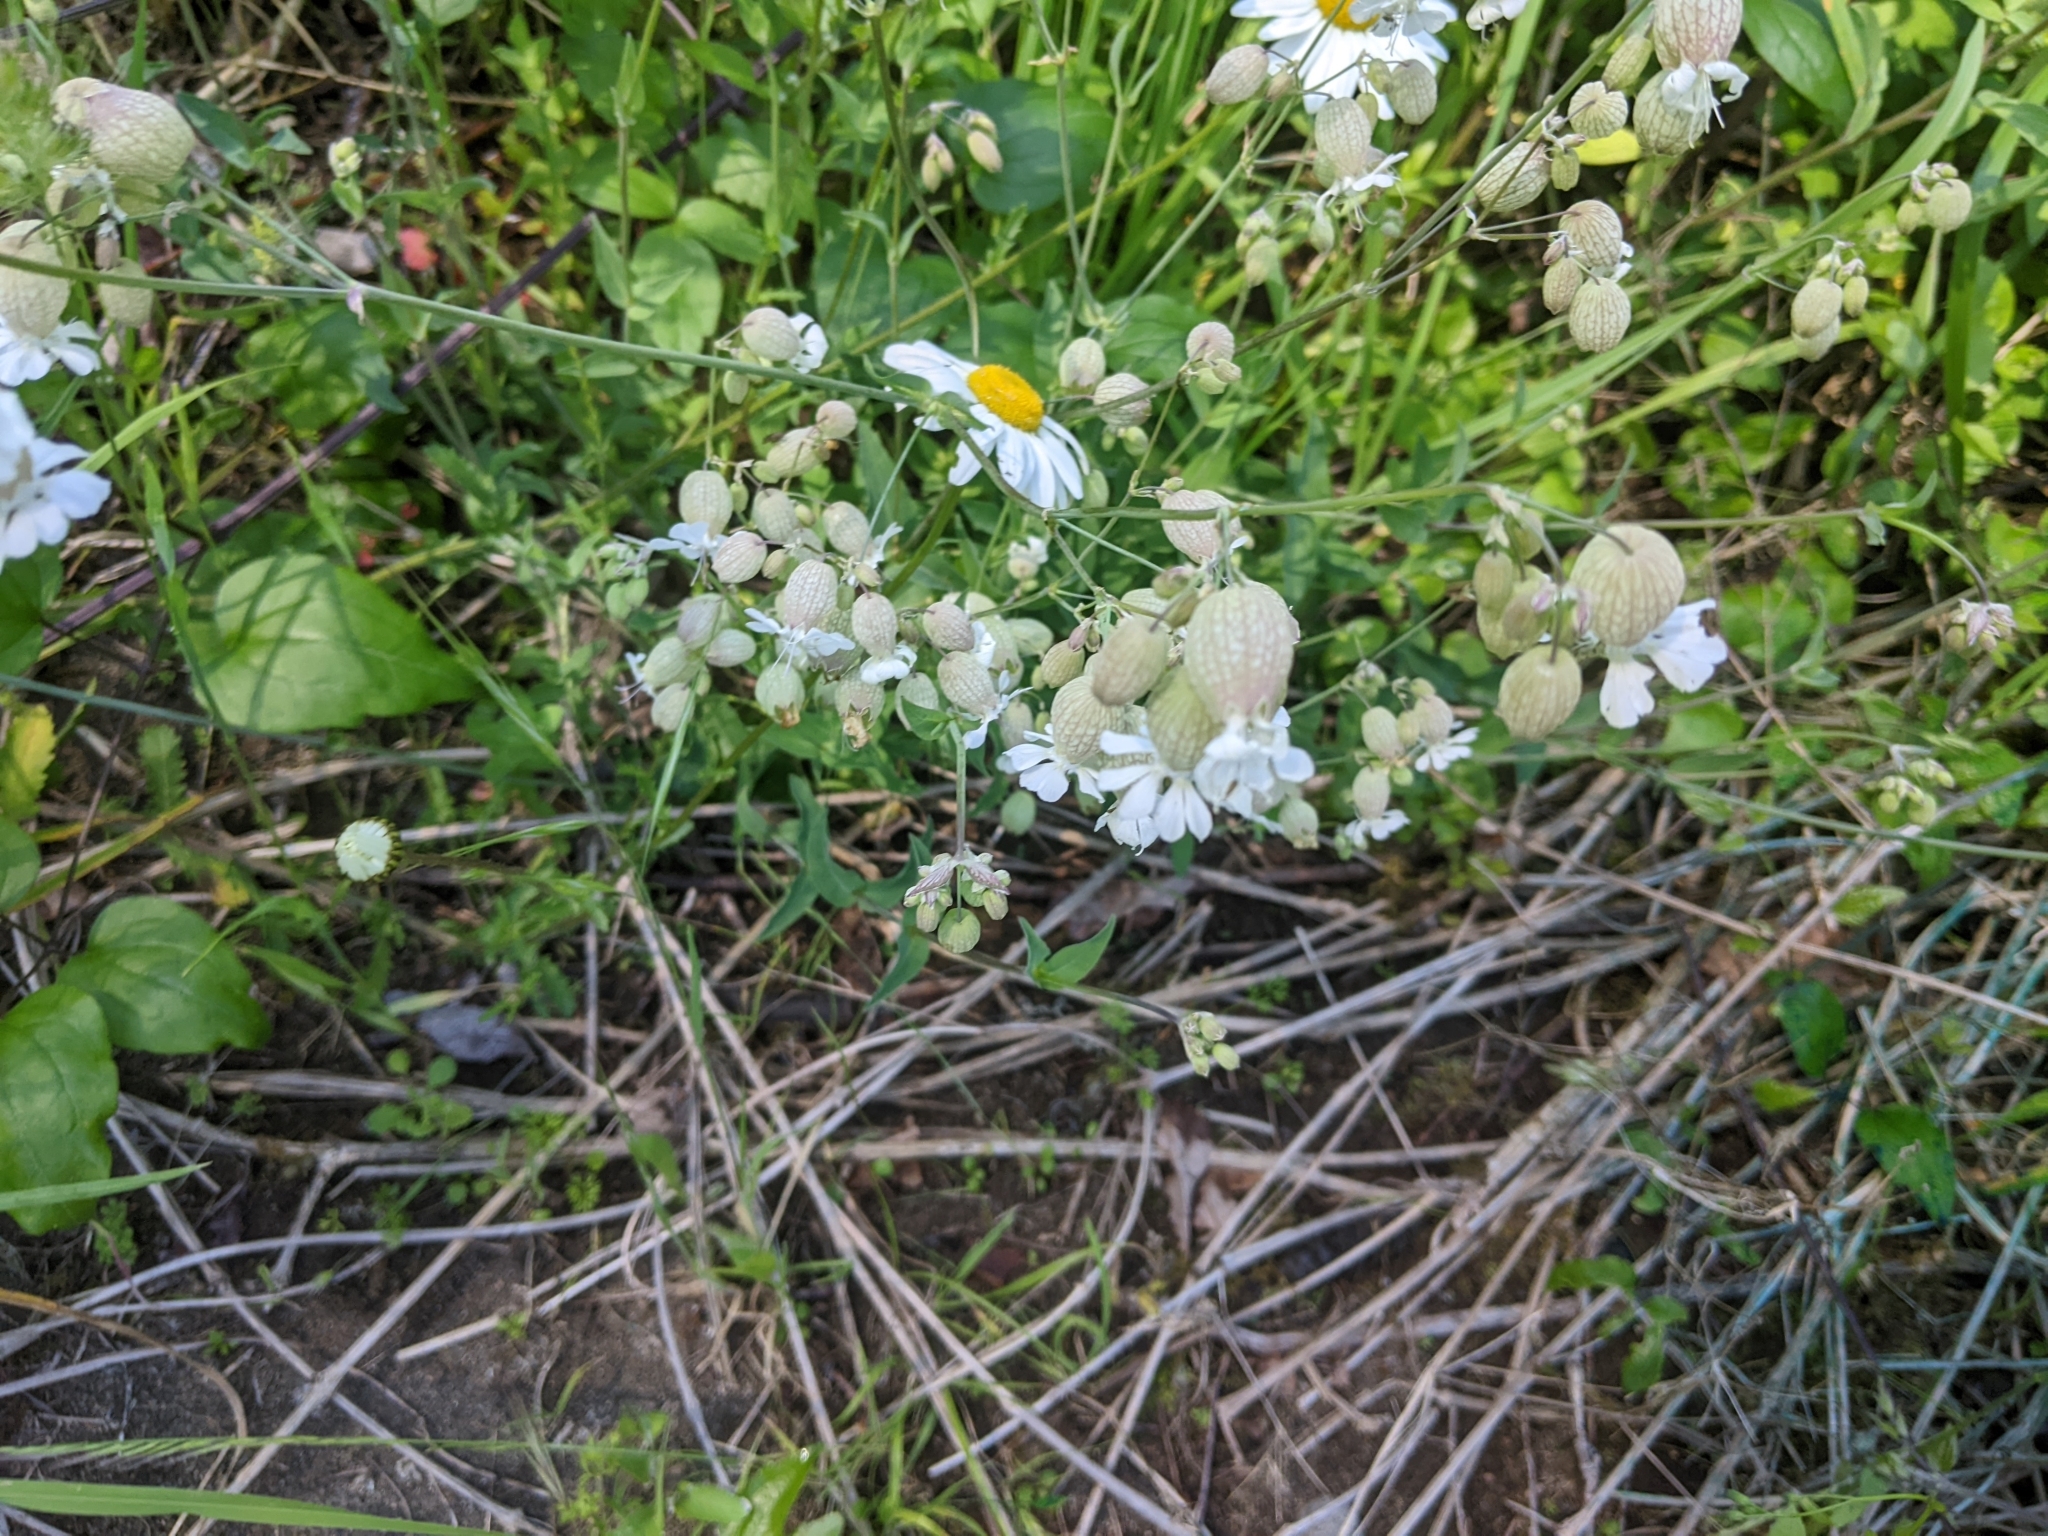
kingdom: Plantae
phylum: Tracheophyta
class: Magnoliopsida
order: Caryophyllales
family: Caryophyllaceae
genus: Silene
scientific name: Silene vulgaris
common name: Bladder campion
